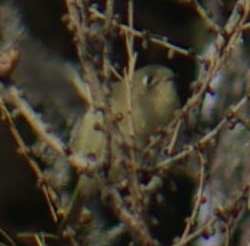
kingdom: Animalia
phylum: Chordata
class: Aves
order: Passeriformes
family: Regulidae
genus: Regulus
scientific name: Regulus calendula
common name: Ruby-crowned kinglet
